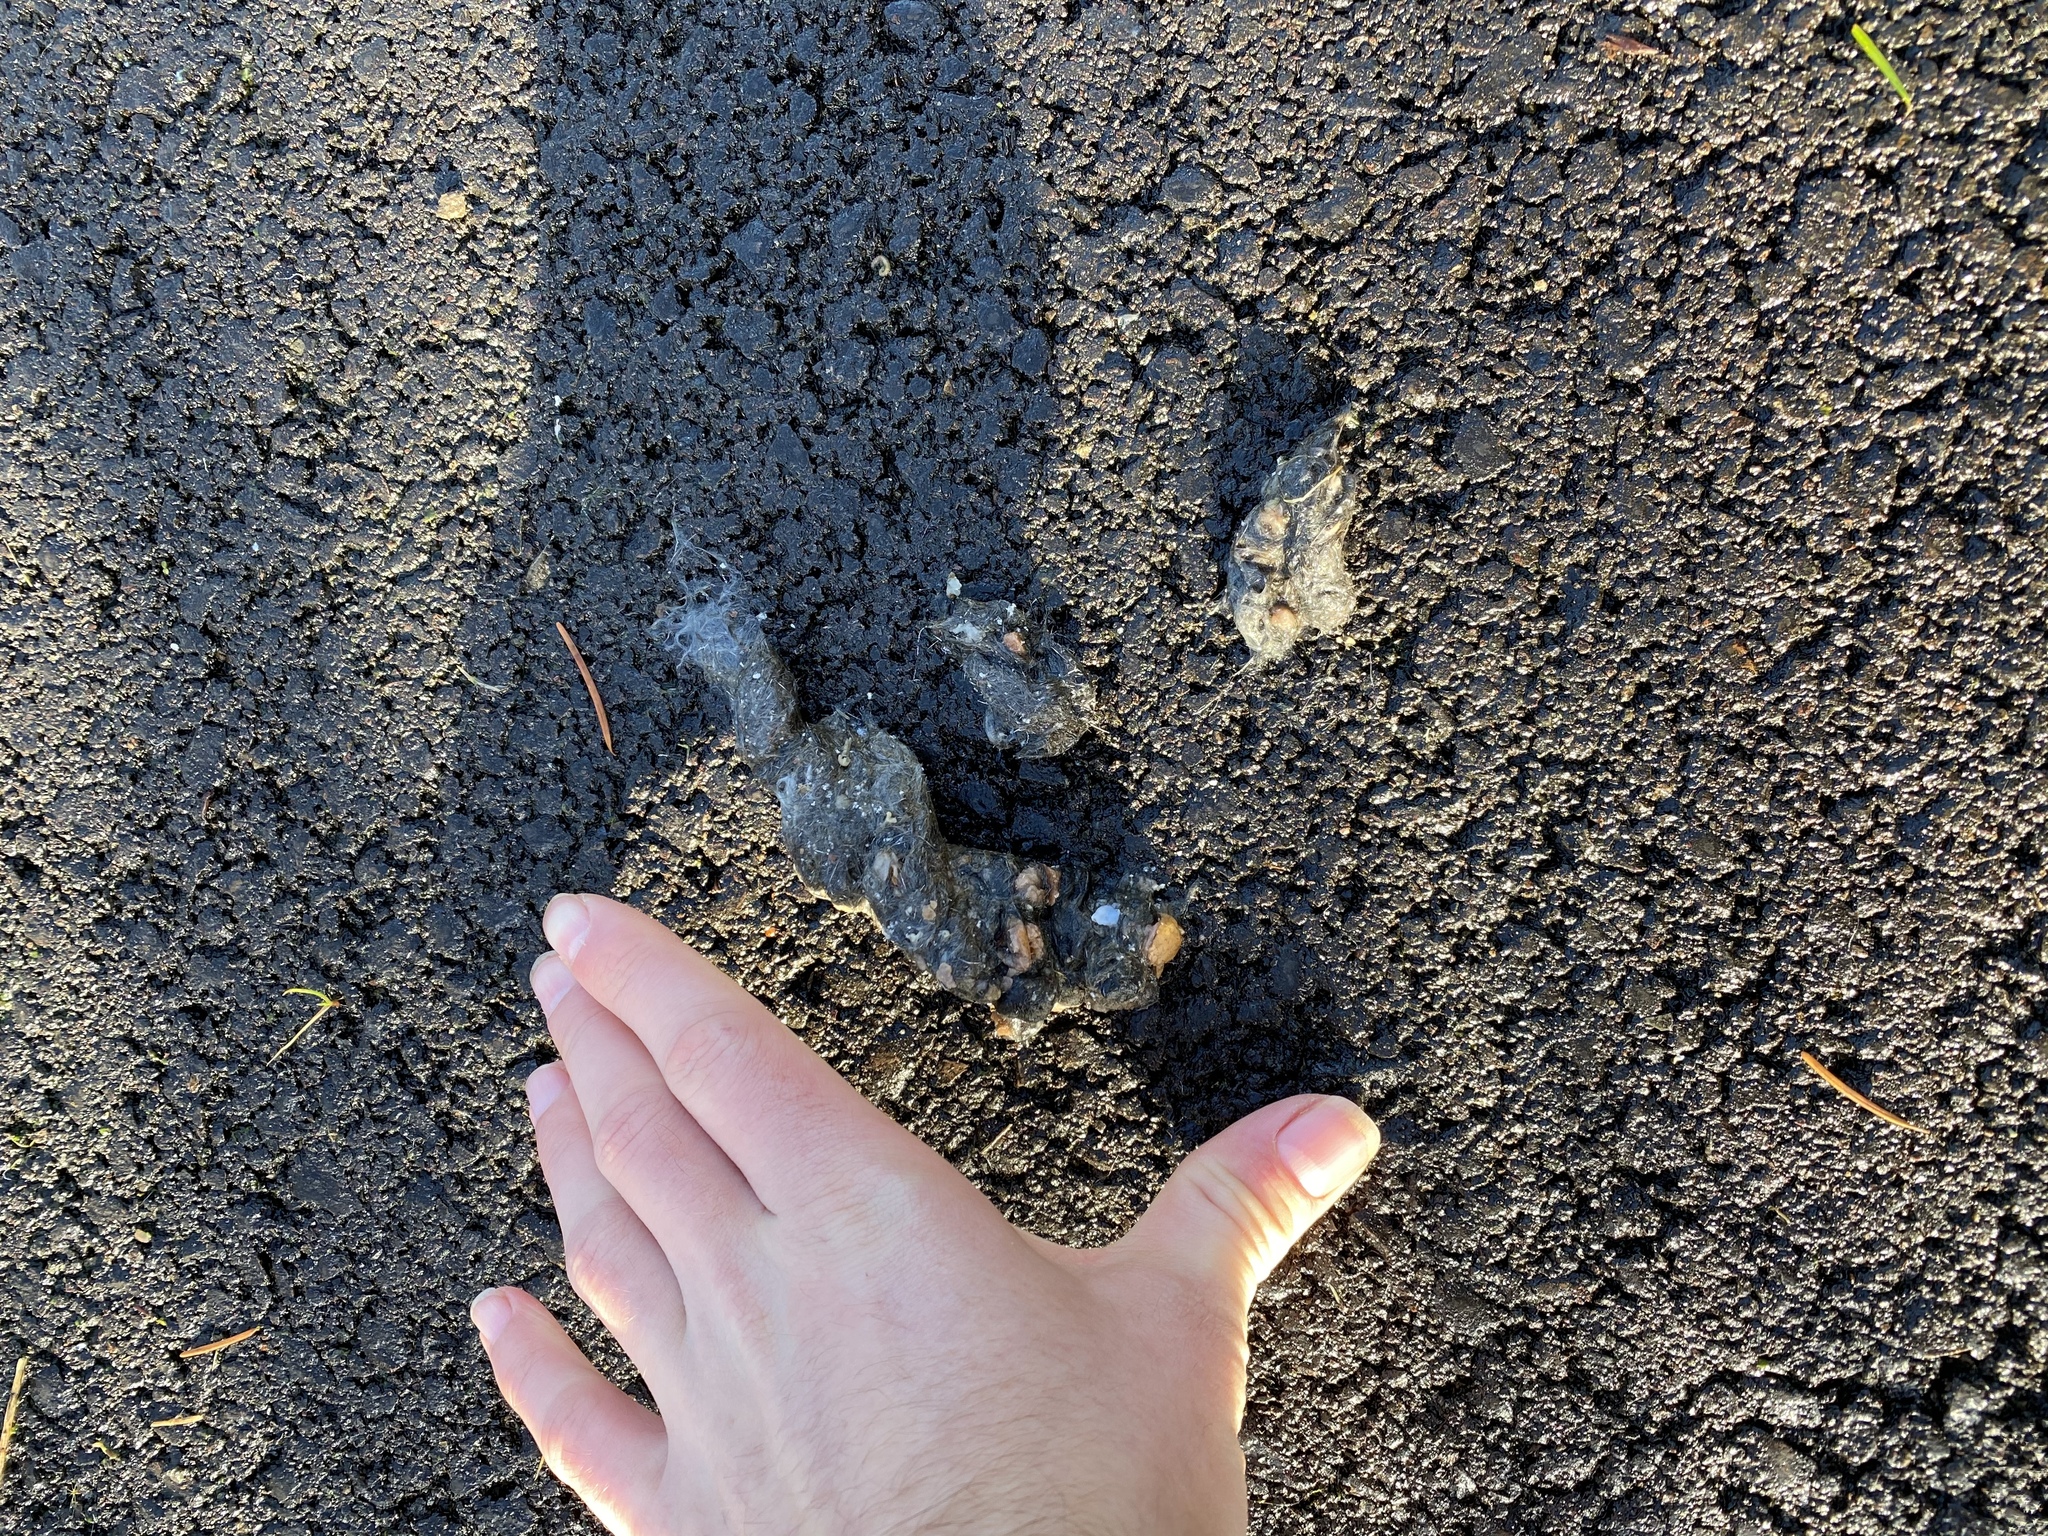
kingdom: Animalia
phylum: Chordata
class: Mammalia
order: Carnivora
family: Canidae
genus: Canis
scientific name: Canis latrans
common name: Coyote
